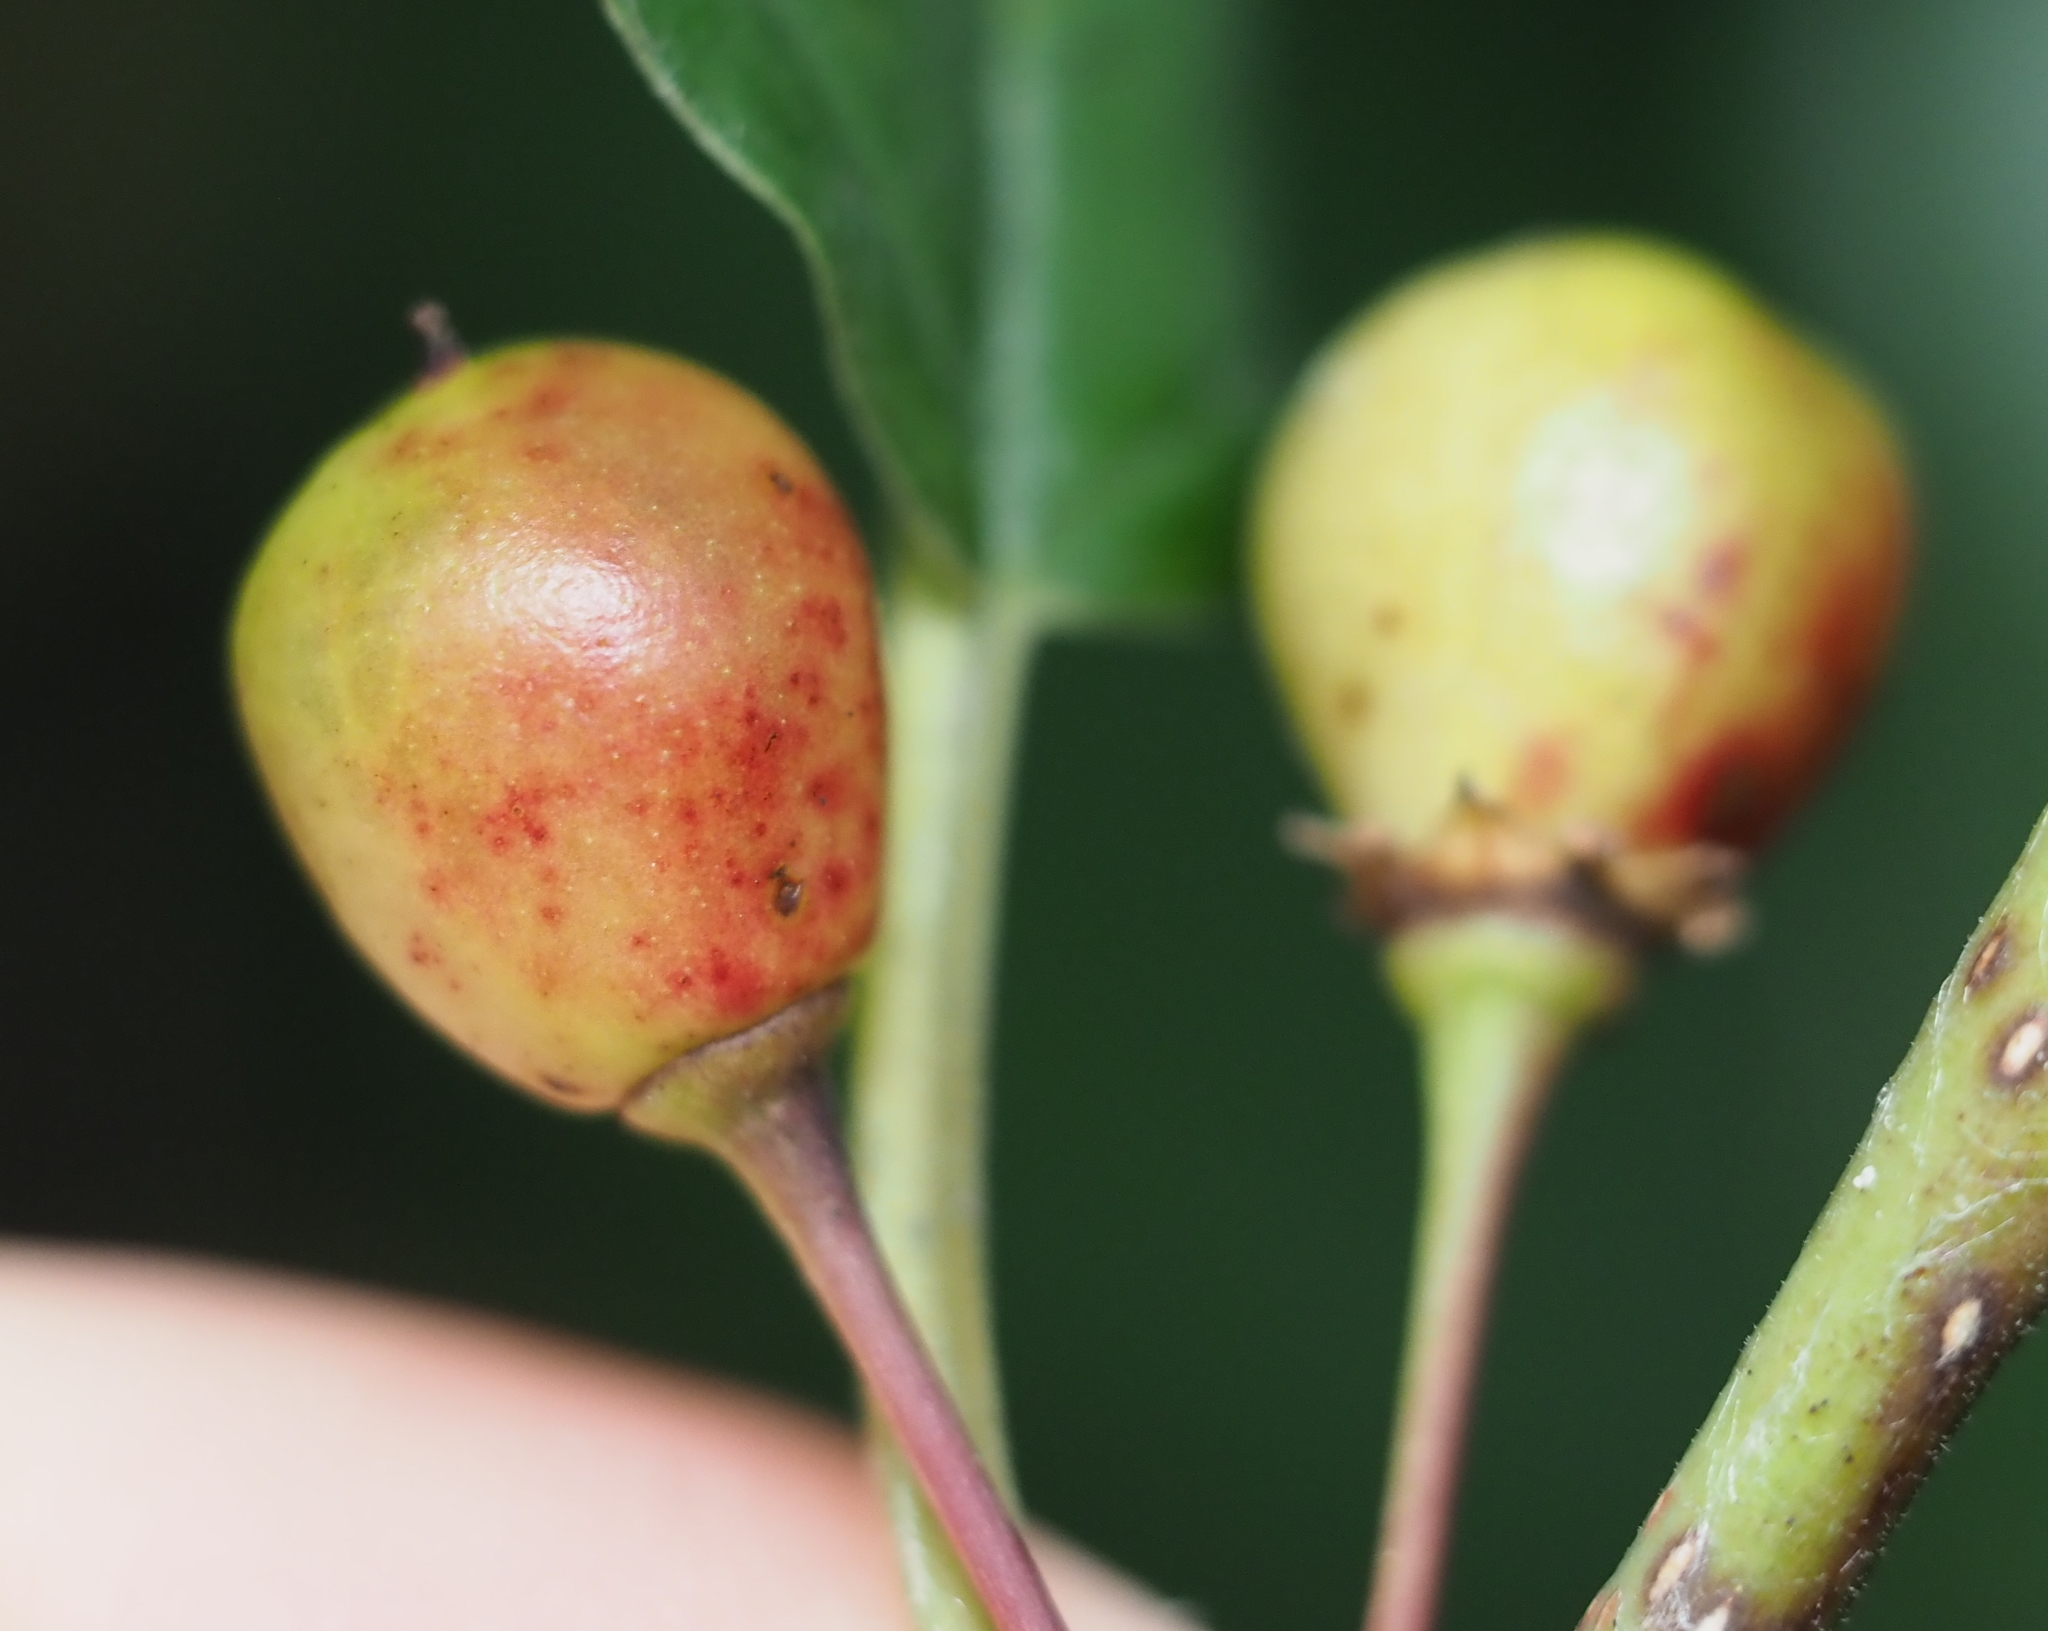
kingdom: Plantae
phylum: Tracheophyta
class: Magnoliopsida
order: Rosales
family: Rhamnaceae
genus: Frangula
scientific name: Frangula alnus
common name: Alder buckthorn
